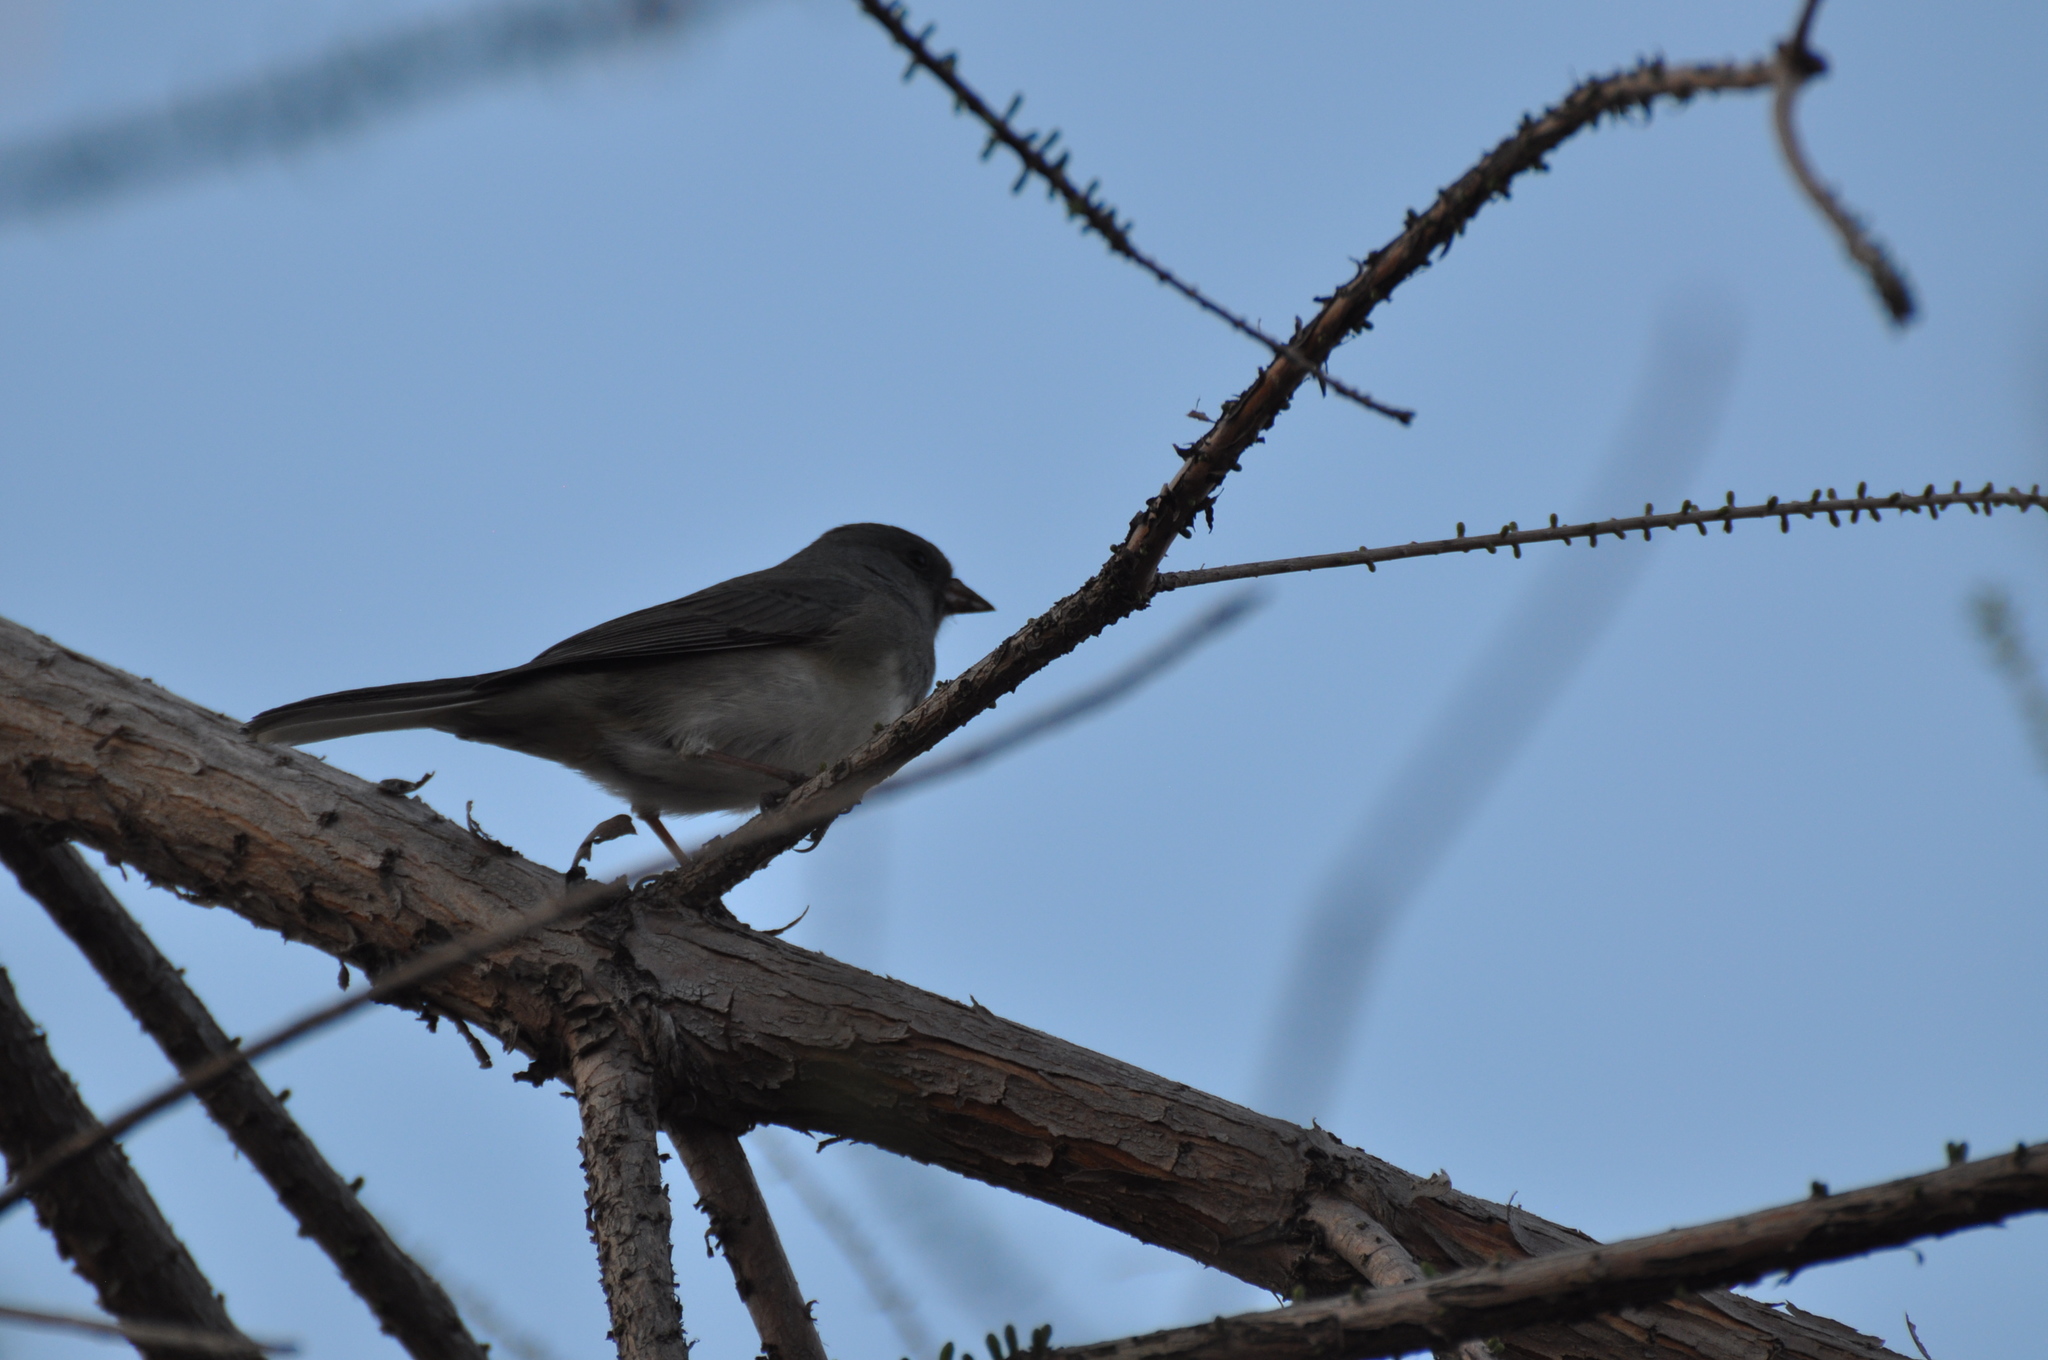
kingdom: Animalia
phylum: Chordata
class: Aves
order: Passeriformes
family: Passerellidae
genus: Junco
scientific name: Junco hyemalis
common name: Dark-eyed junco
